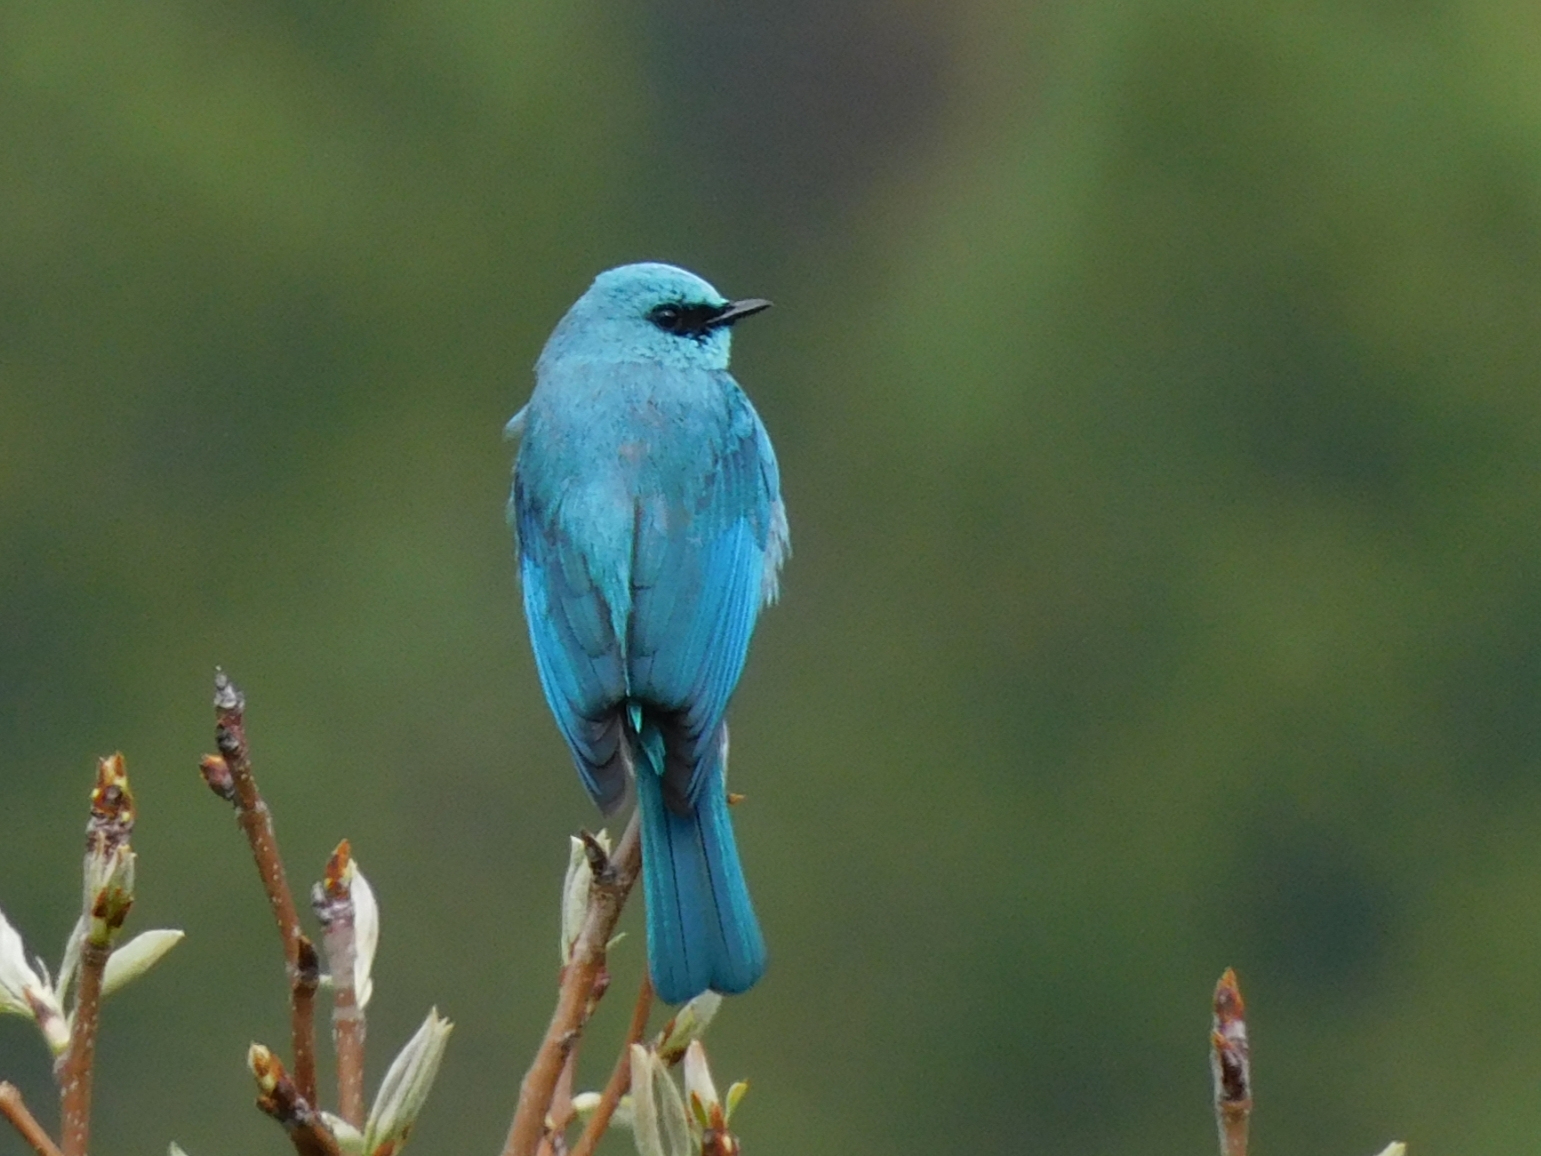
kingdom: Animalia
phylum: Chordata
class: Aves
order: Passeriformes
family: Muscicapidae
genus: Eumyias
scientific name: Eumyias thalassinus
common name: Verditer flycatcher
